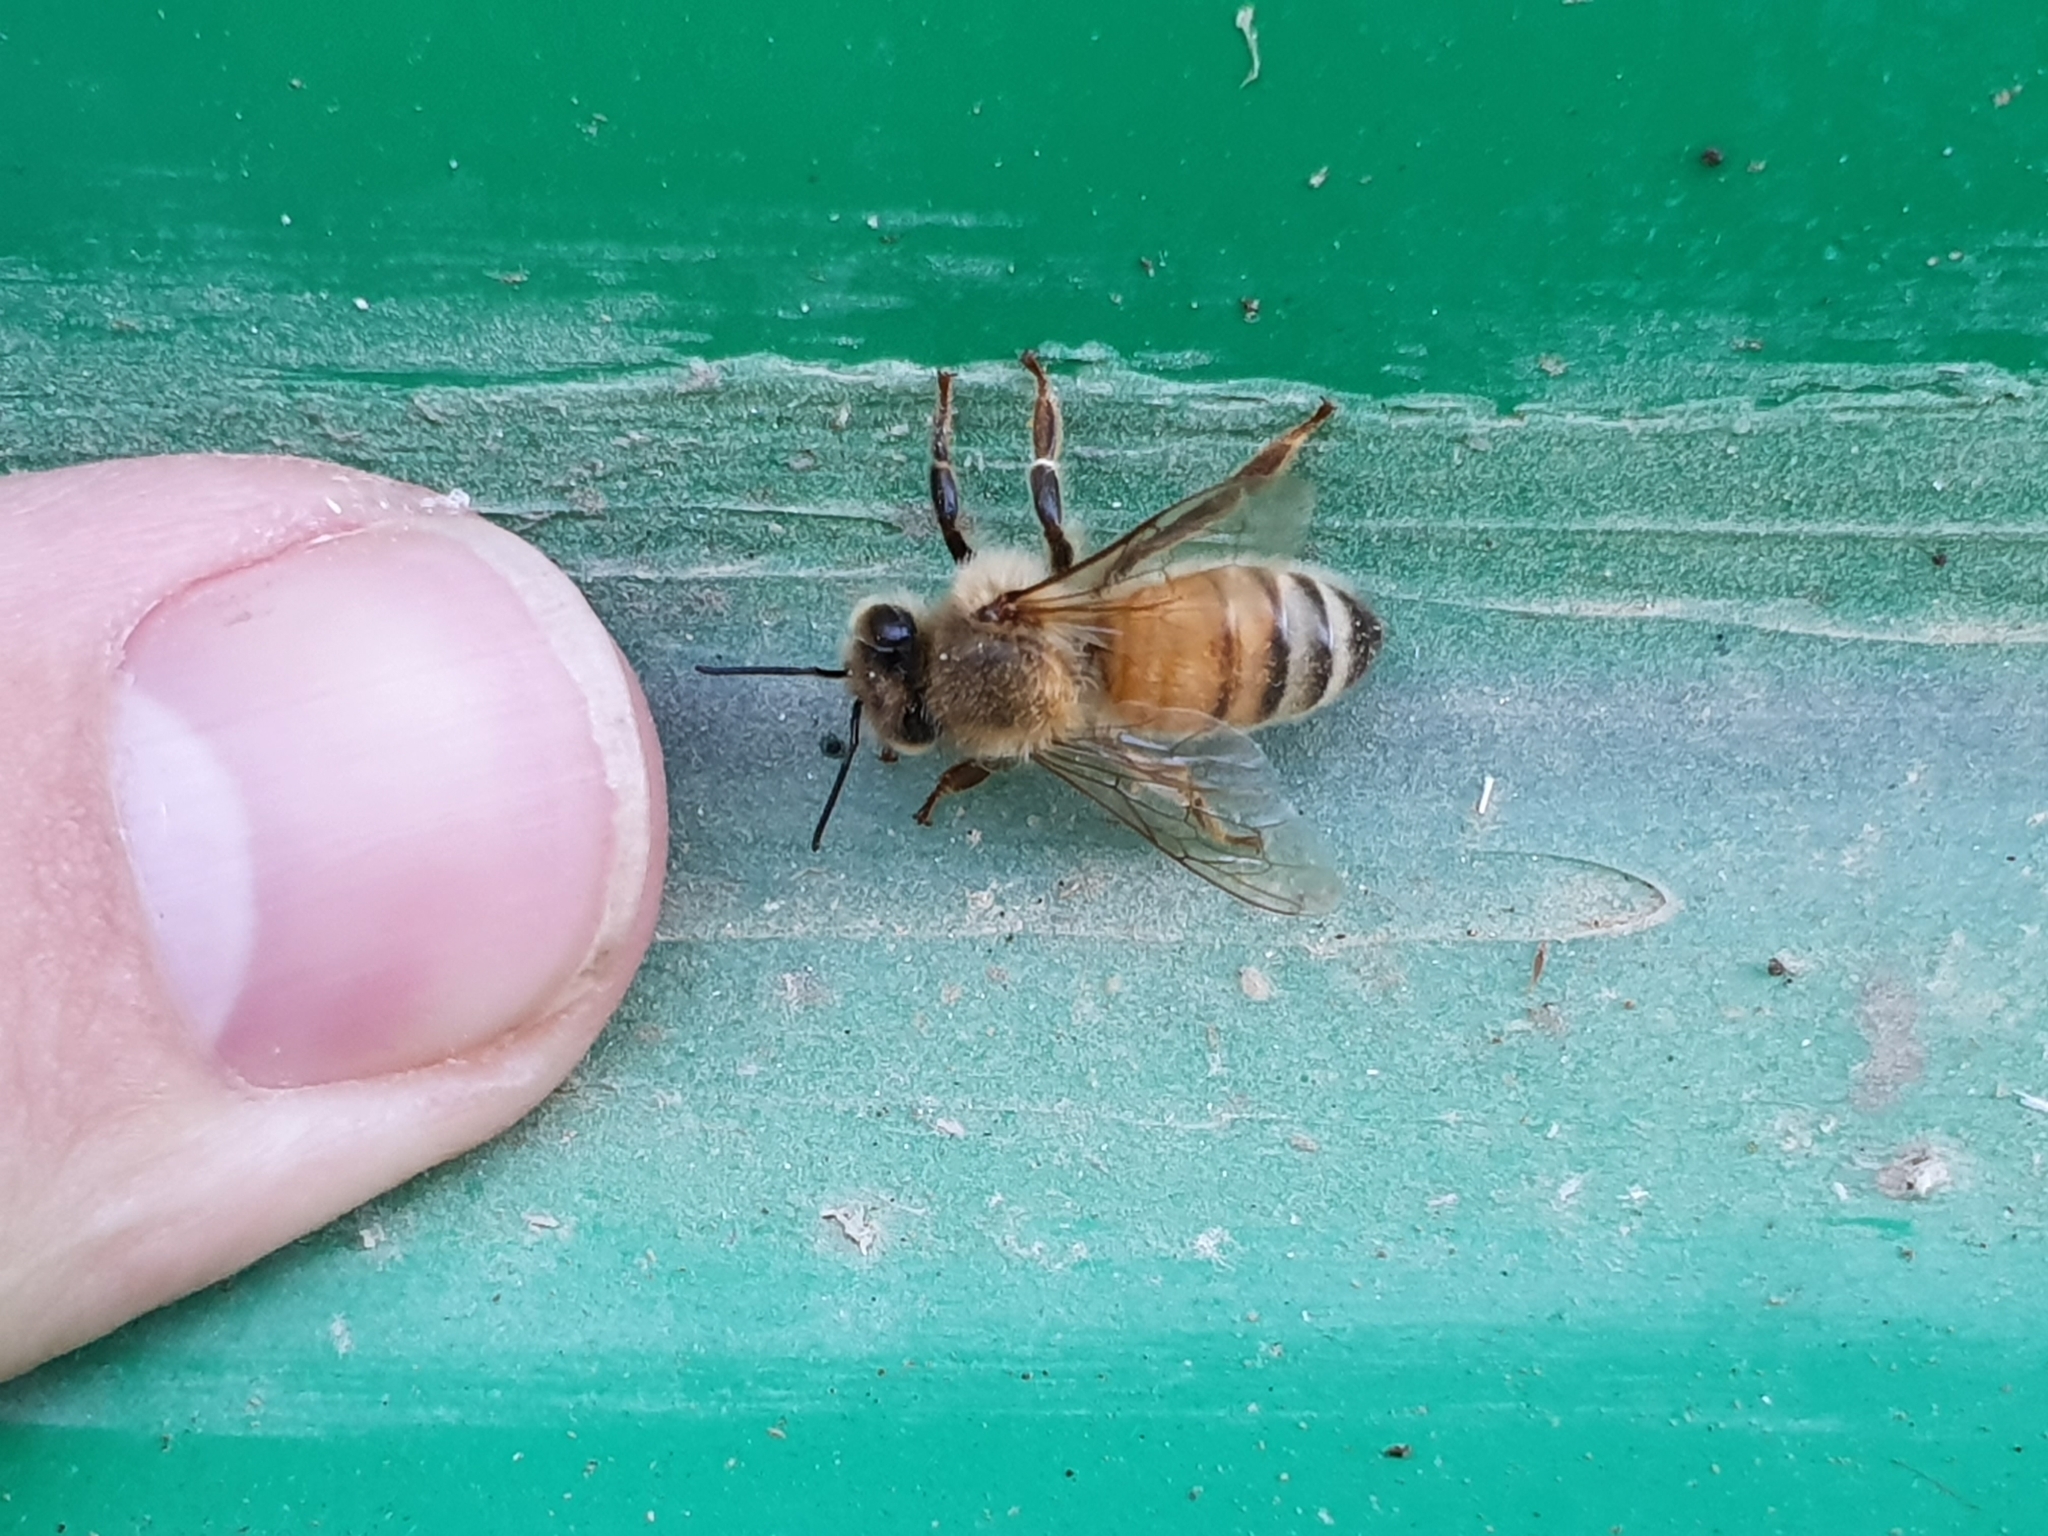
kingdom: Animalia
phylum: Arthropoda
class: Insecta
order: Hymenoptera
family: Apidae
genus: Apis
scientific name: Apis mellifera
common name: Honey bee
